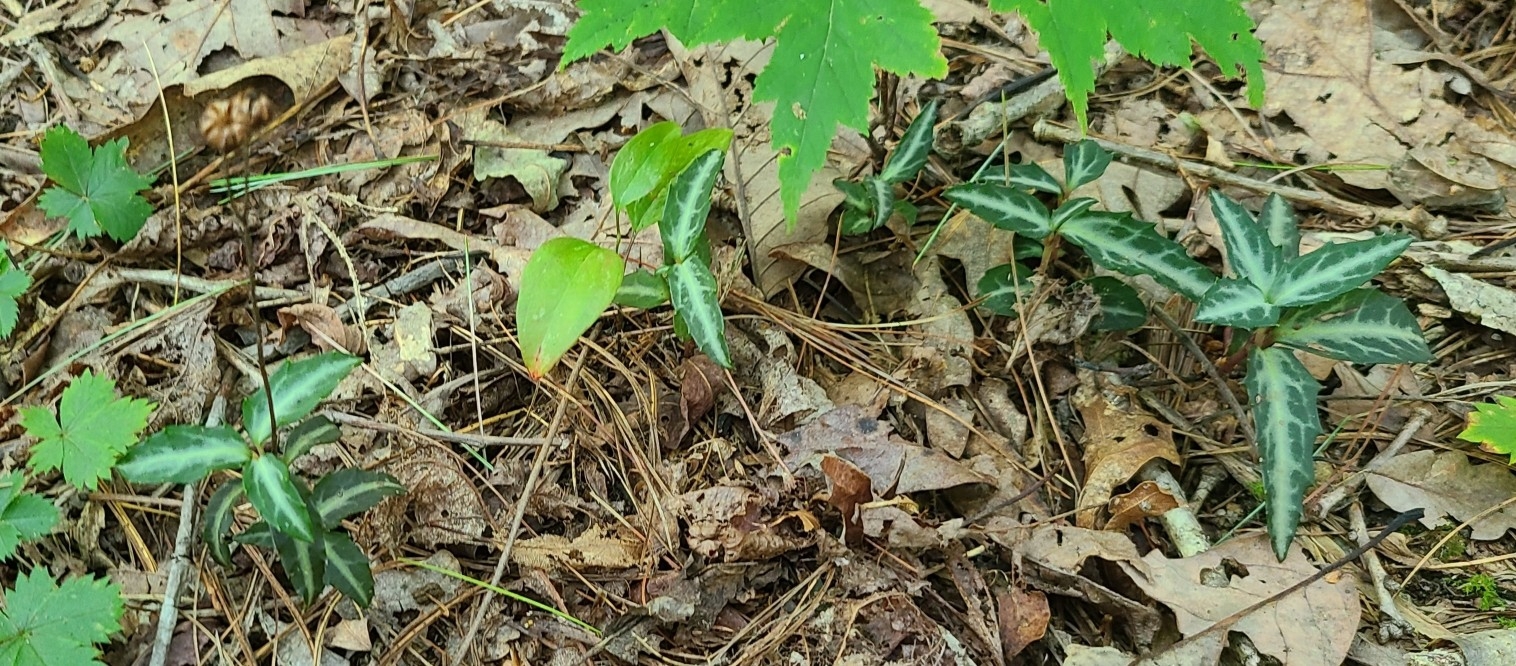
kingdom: Plantae
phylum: Tracheophyta
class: Magnoliopsida
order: Ericales
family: Ericaceae
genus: Chimaphila
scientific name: Chimaphila maculata
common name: Spotted pipsissewa
